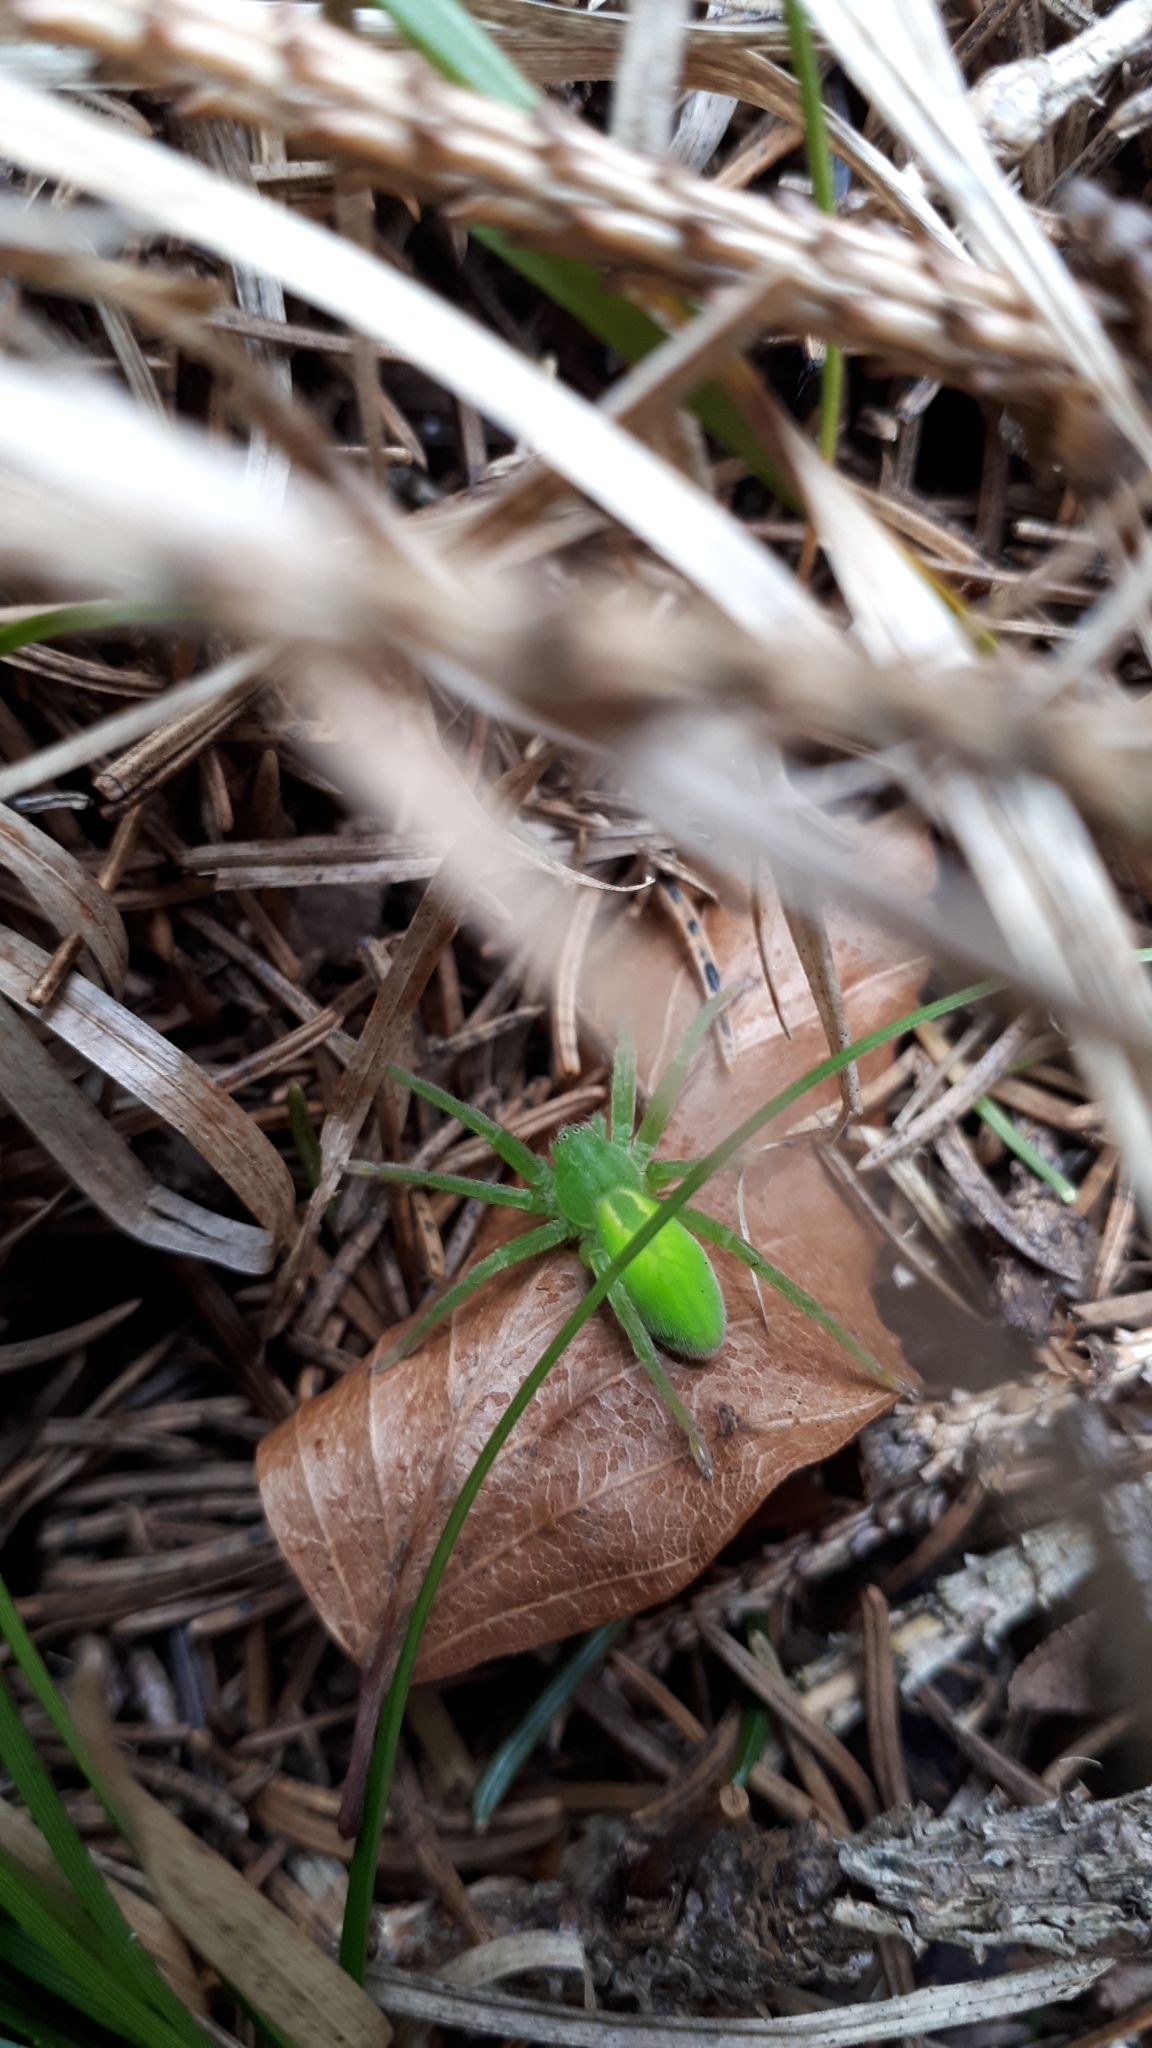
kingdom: Animalia
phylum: Arthropoda
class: Arachnida
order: Araneae
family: Sparassidae
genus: Micrommata
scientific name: Micrommata virescens
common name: Green spider
